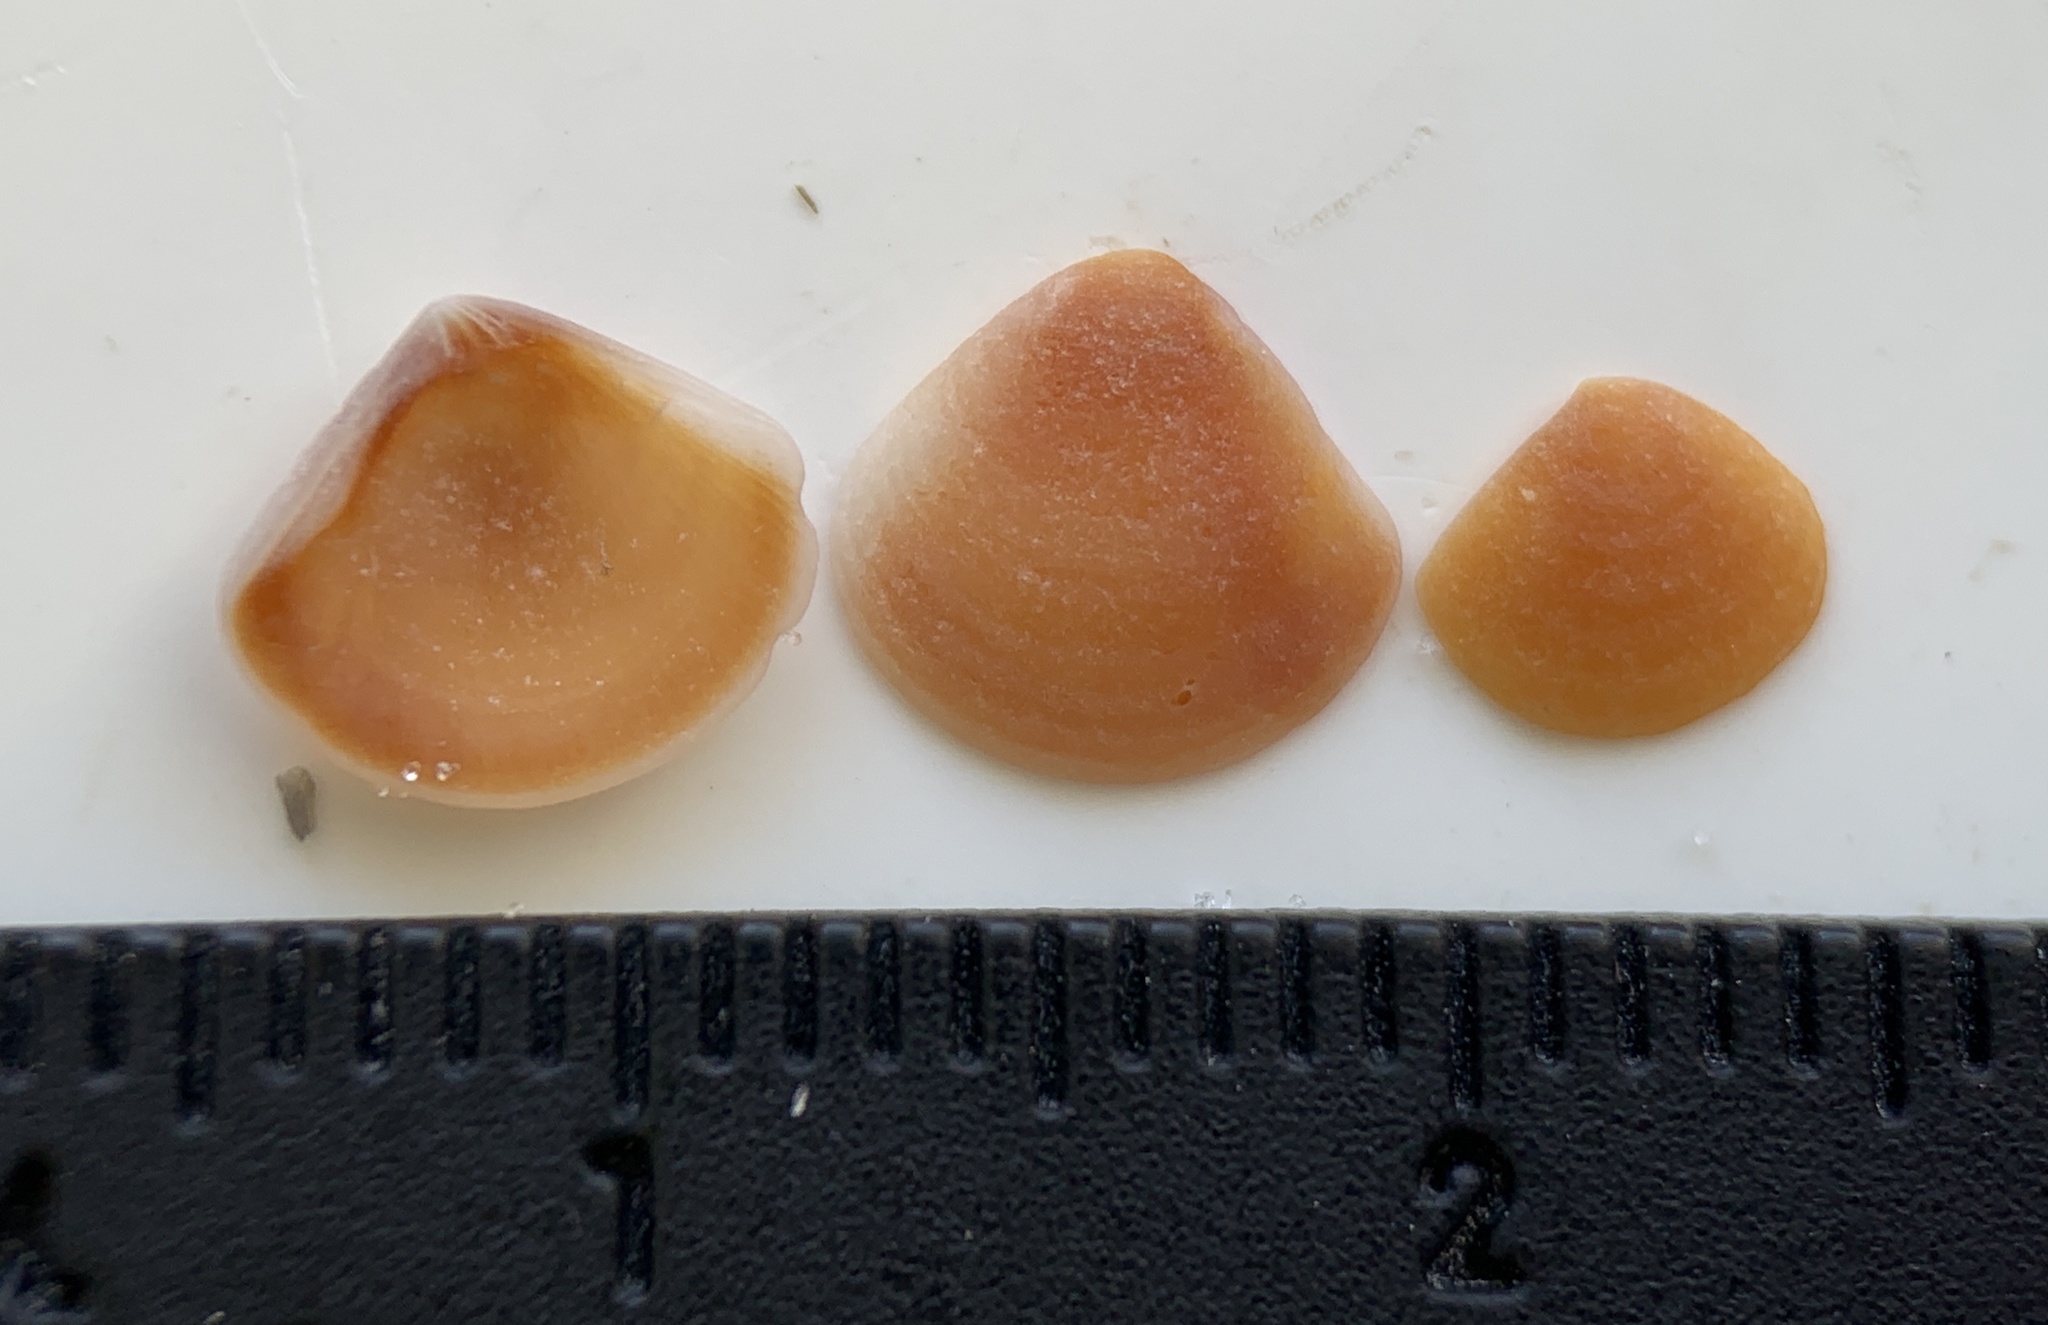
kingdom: Animalia
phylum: Mollusca
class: Bivalvia
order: Carditida
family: Crassatellidae
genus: Crassinella
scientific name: Crassinella lunulata
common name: Lunate crassinella
